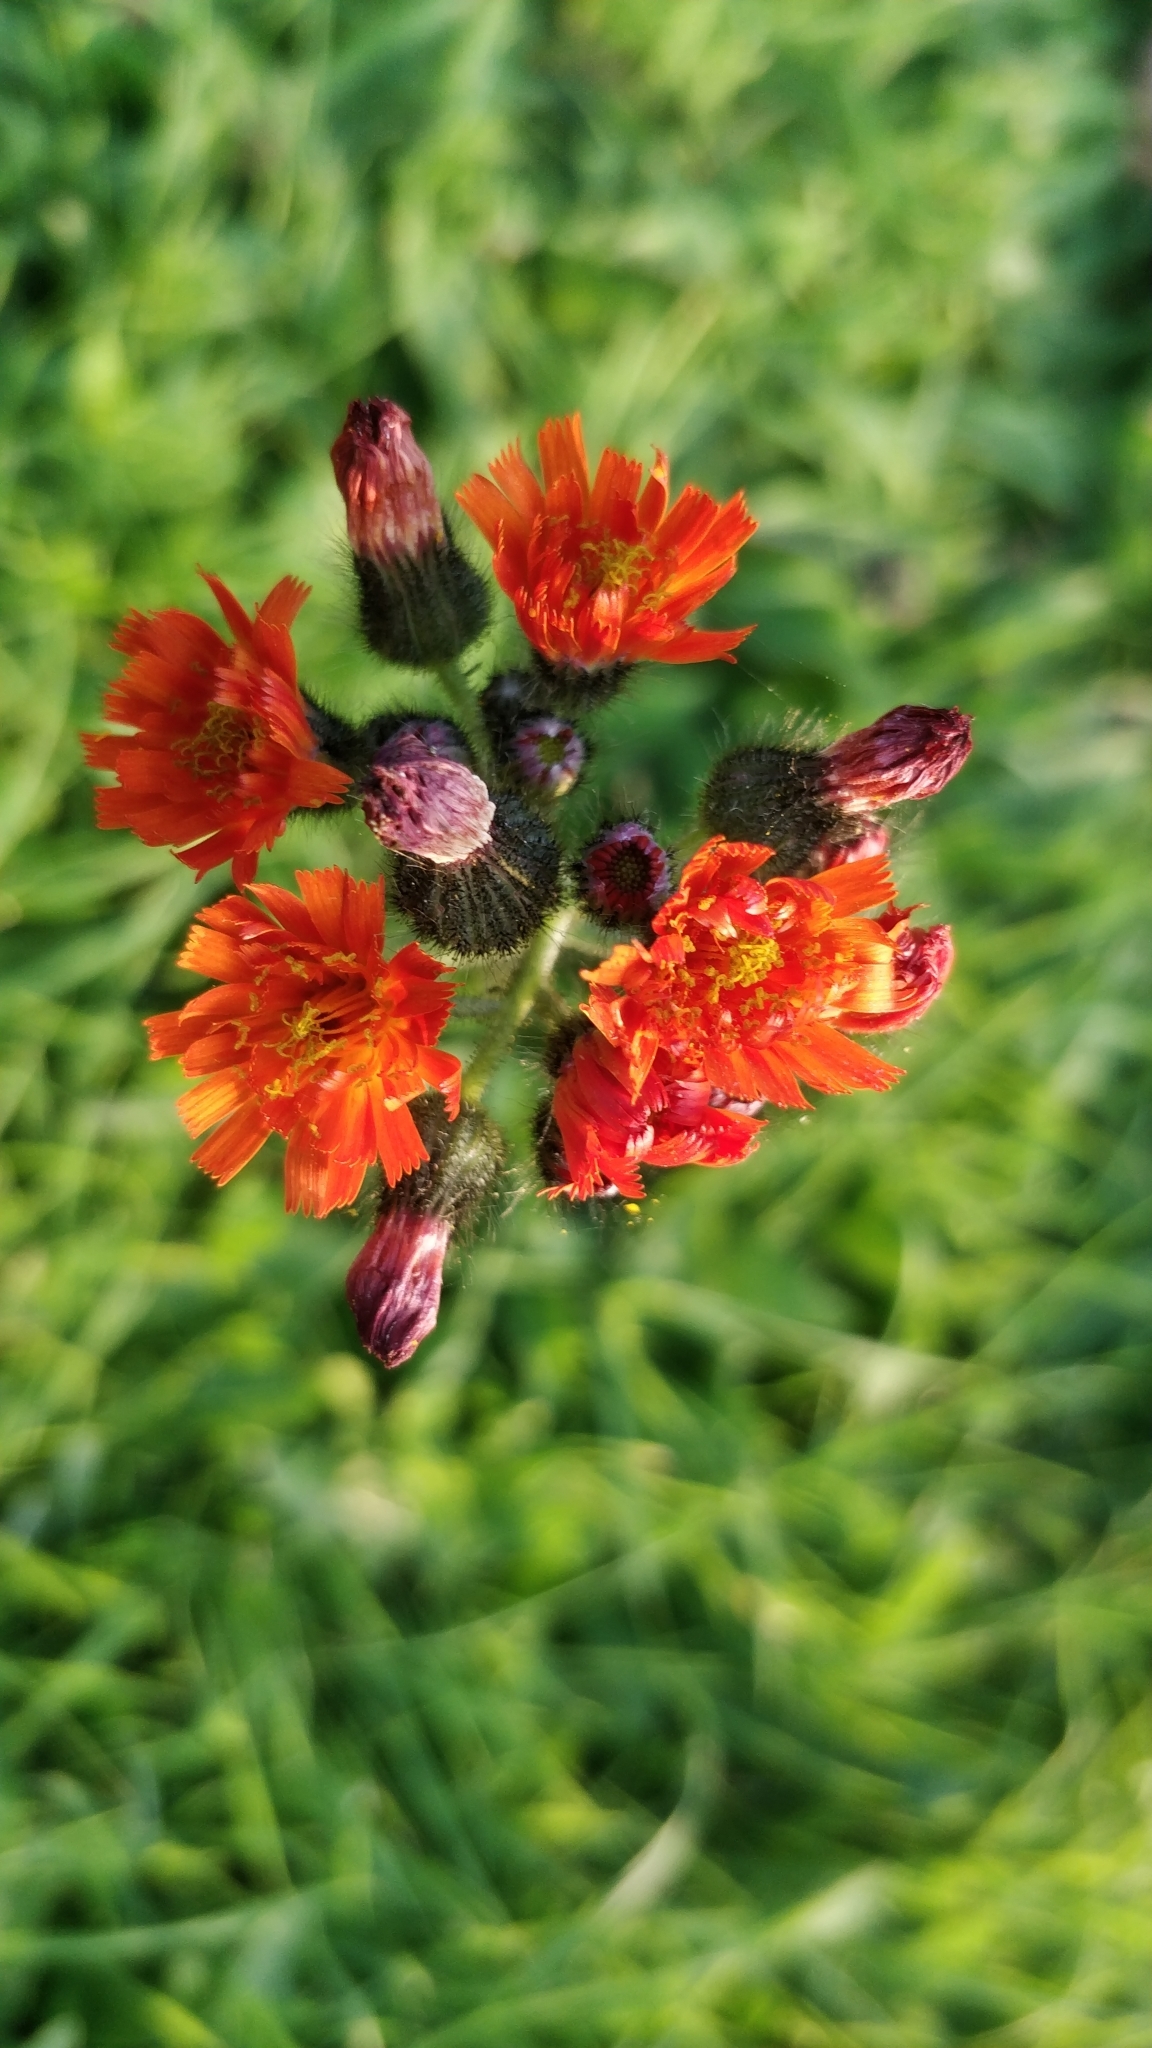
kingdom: Plantae
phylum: Tracheophyta
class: Magnoliopsida
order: Asterales
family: Asteraceae
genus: Pilosella
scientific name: Pilosella aurantiaca
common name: Fox-and-cubs
